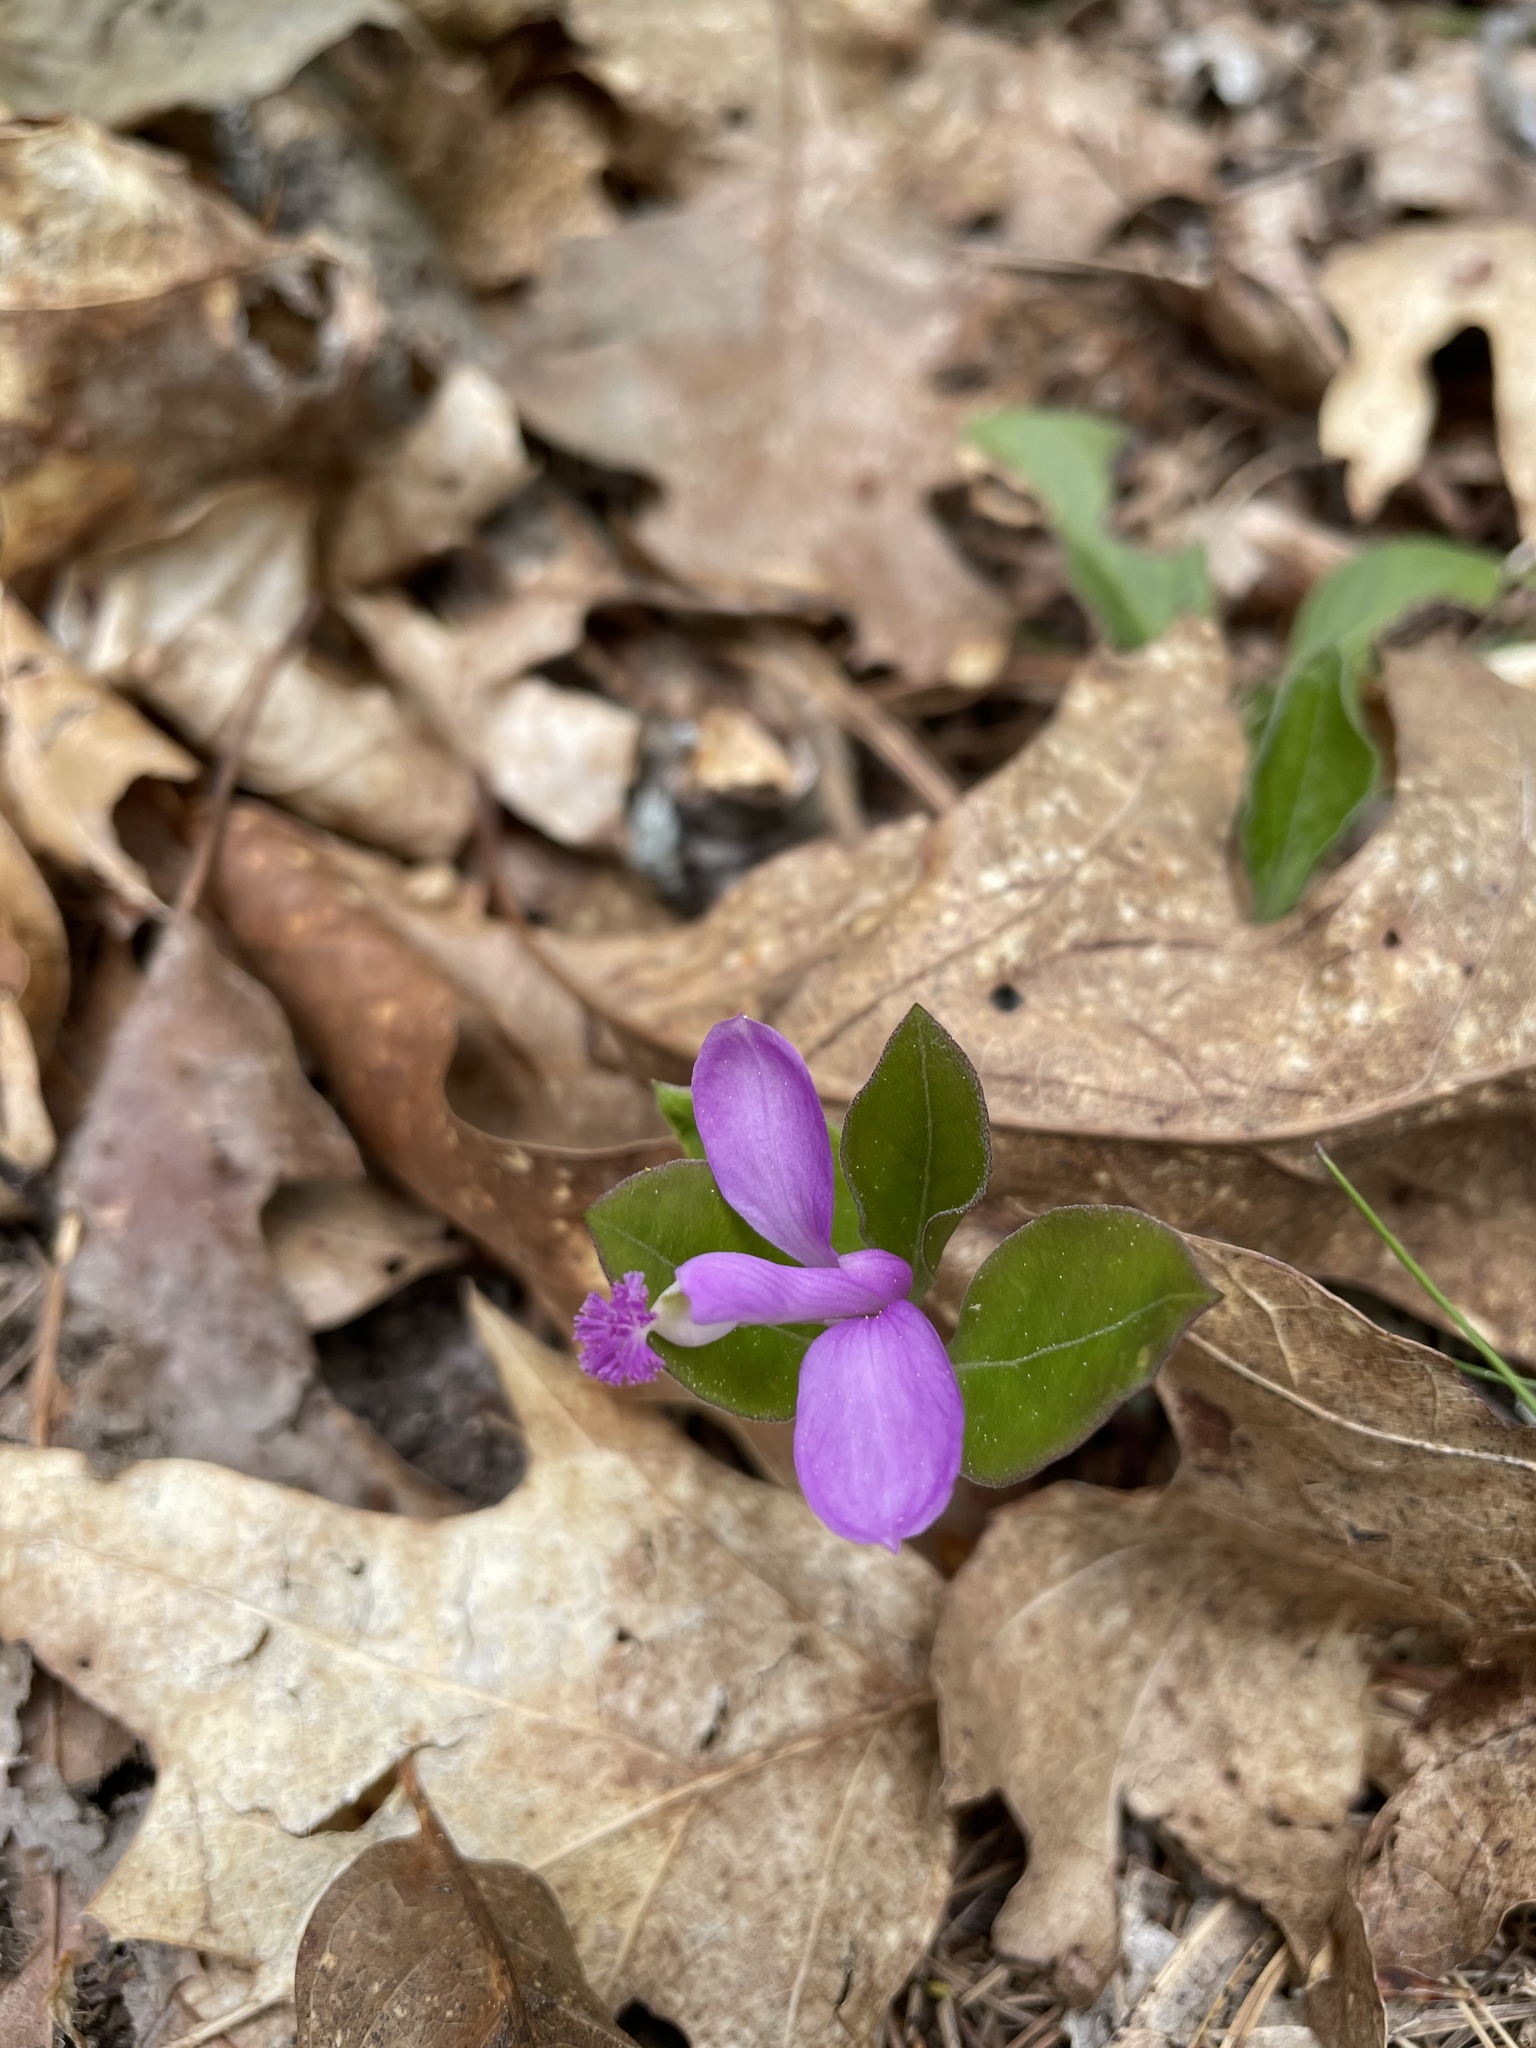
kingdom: Plantae
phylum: Tracheophyta
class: Magnoliopsida
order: Fabales
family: Polygalaceae
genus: Polygaloides
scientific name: Polygaloides paucifolia
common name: Bird-on-the-wing
